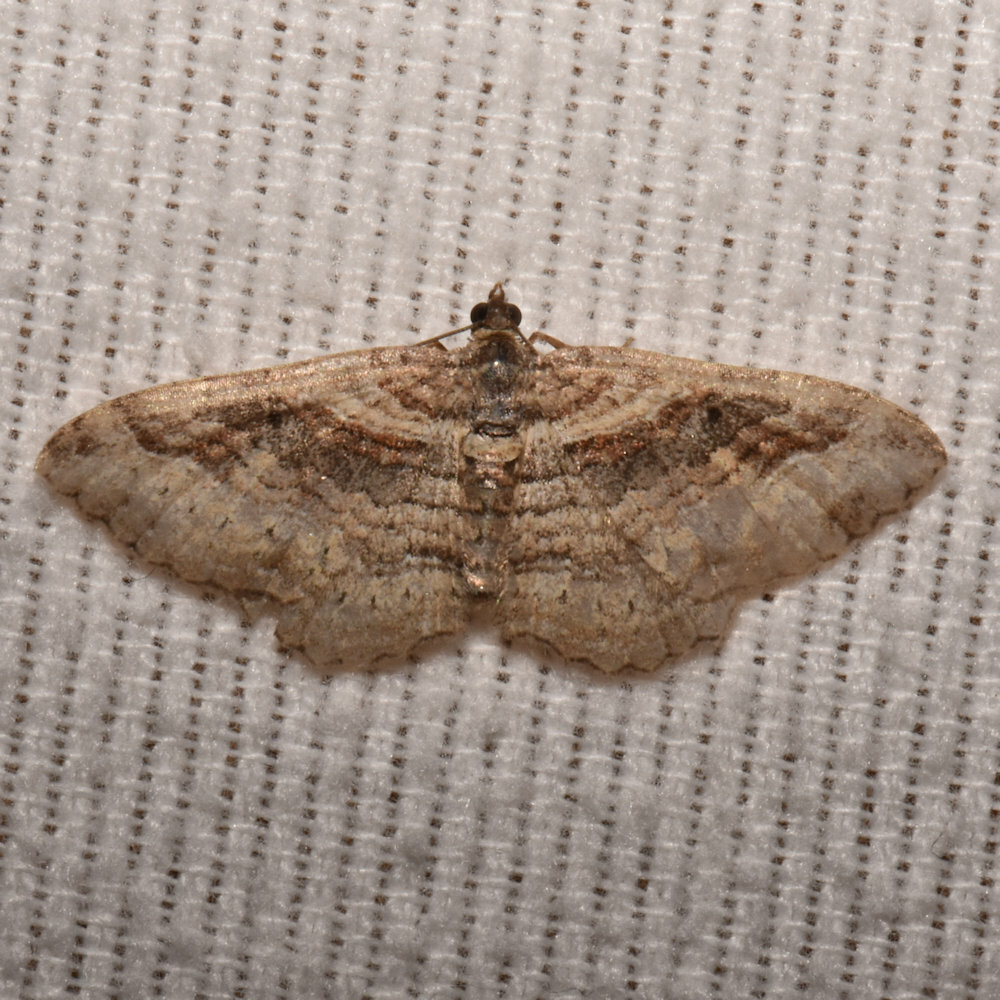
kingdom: Animalia
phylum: Arthropoda
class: Insecta
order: Lepidoptera
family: Geometridae
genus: Costaconvexa
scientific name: Costaconvexa centrostrigaria
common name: Bent-line carpet
